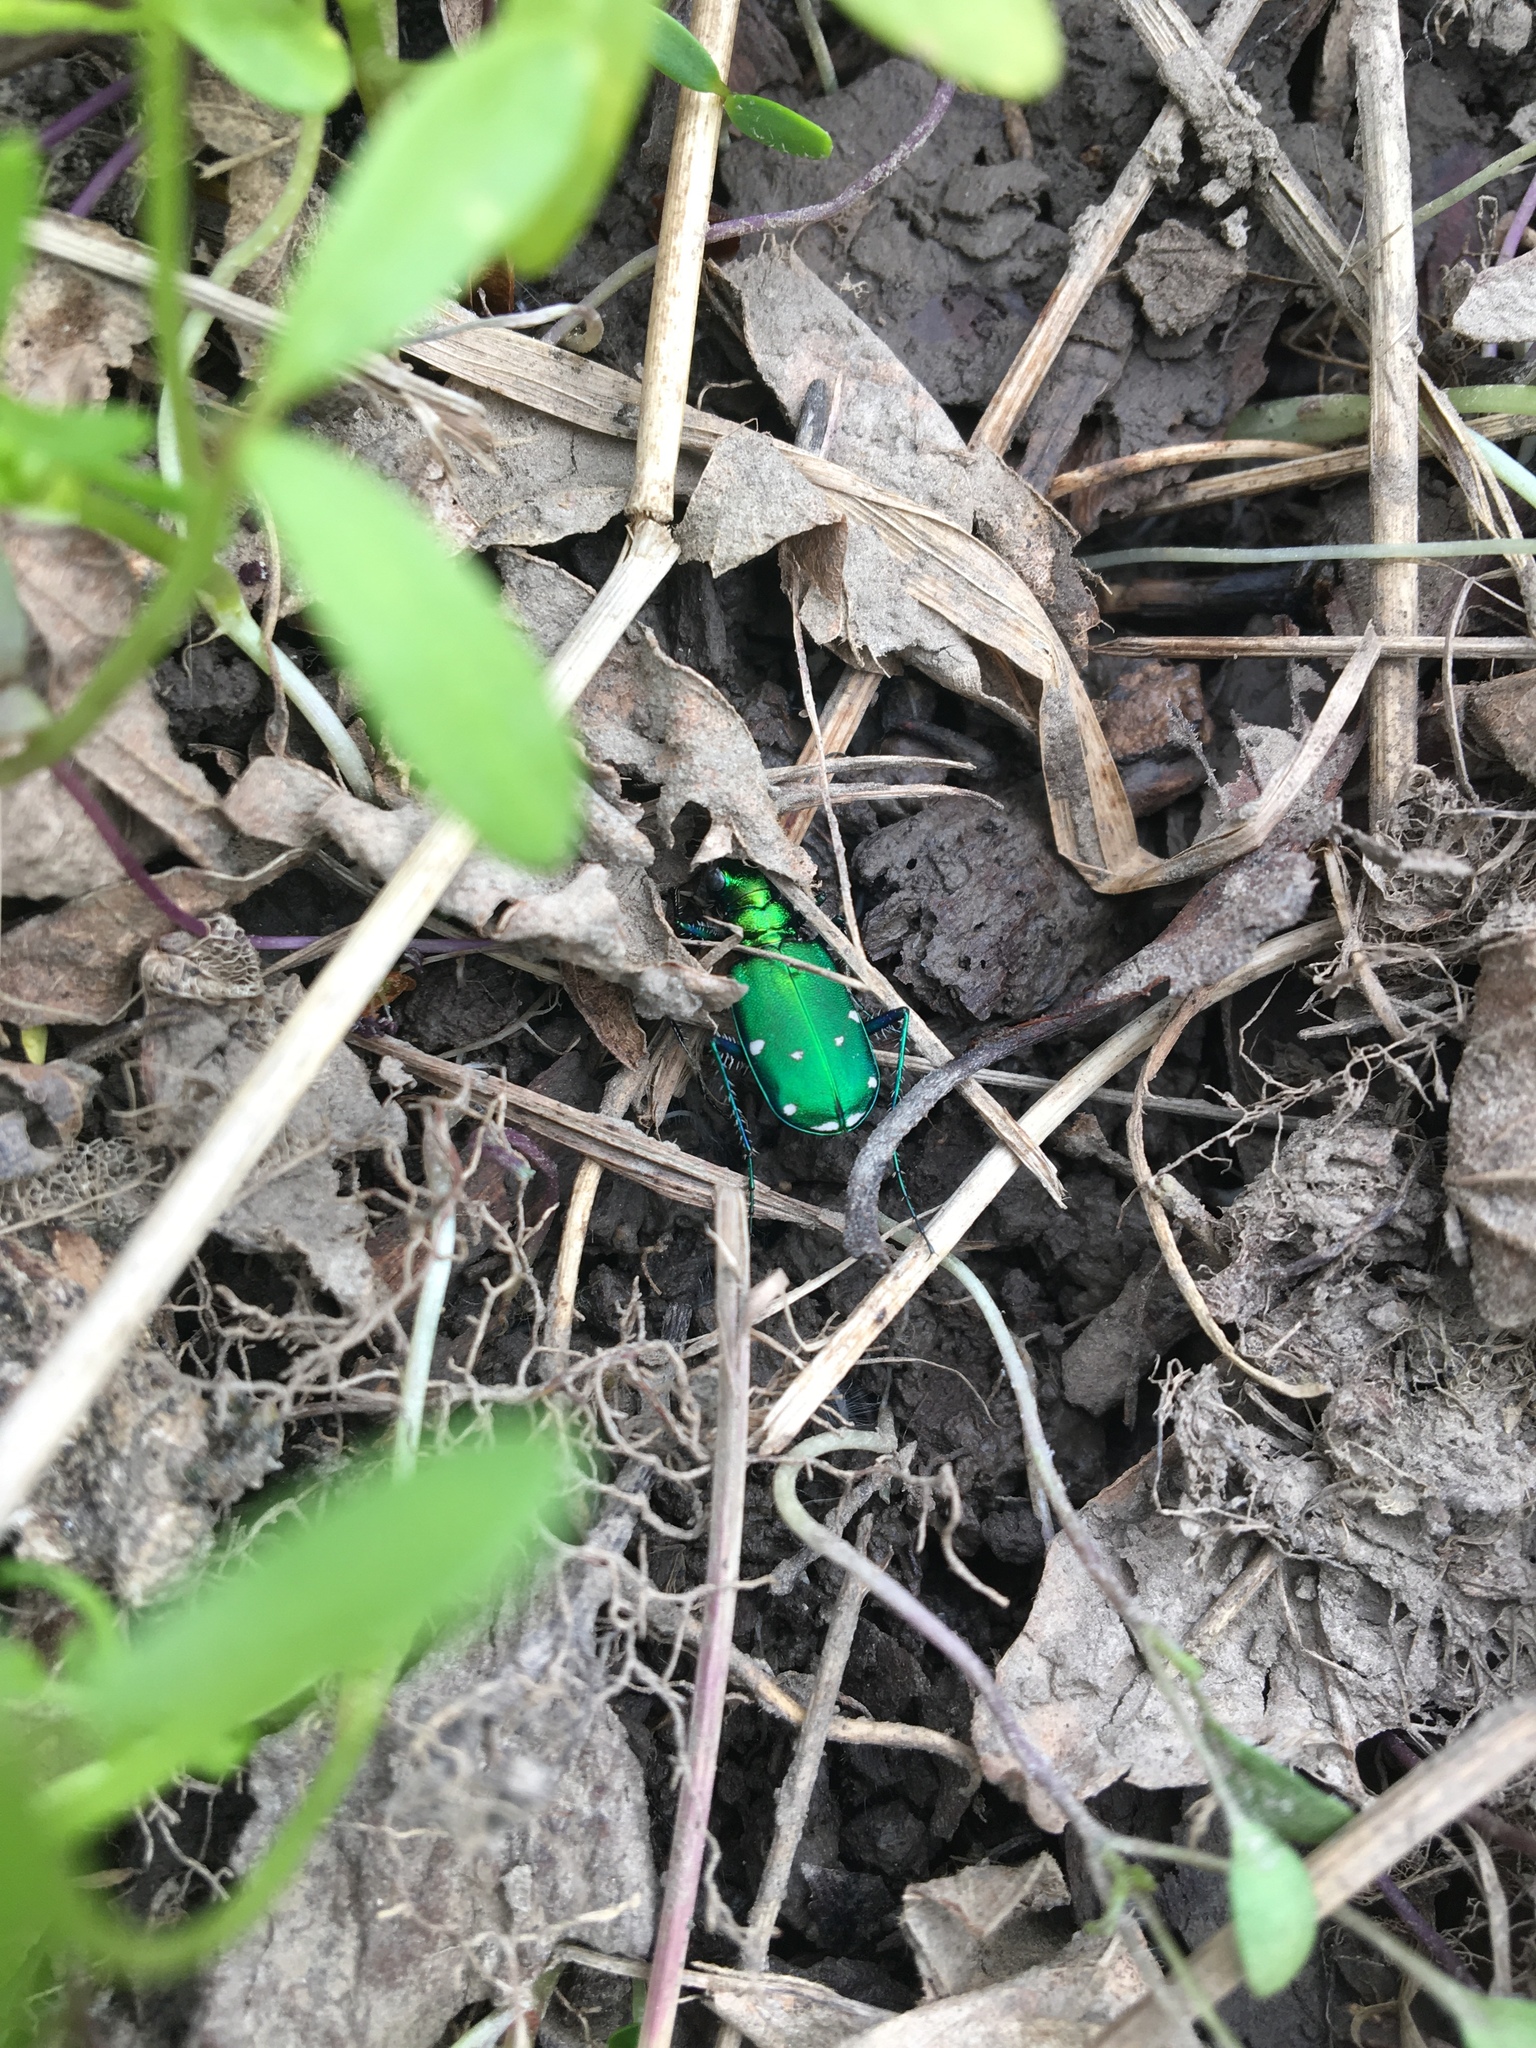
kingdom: Animalia
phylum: Arthropoda
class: Insecta
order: Coleoptera
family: Carabidae
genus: Cicindela
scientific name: Cicindela sexguttata
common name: Six-spotted tiger beetle
